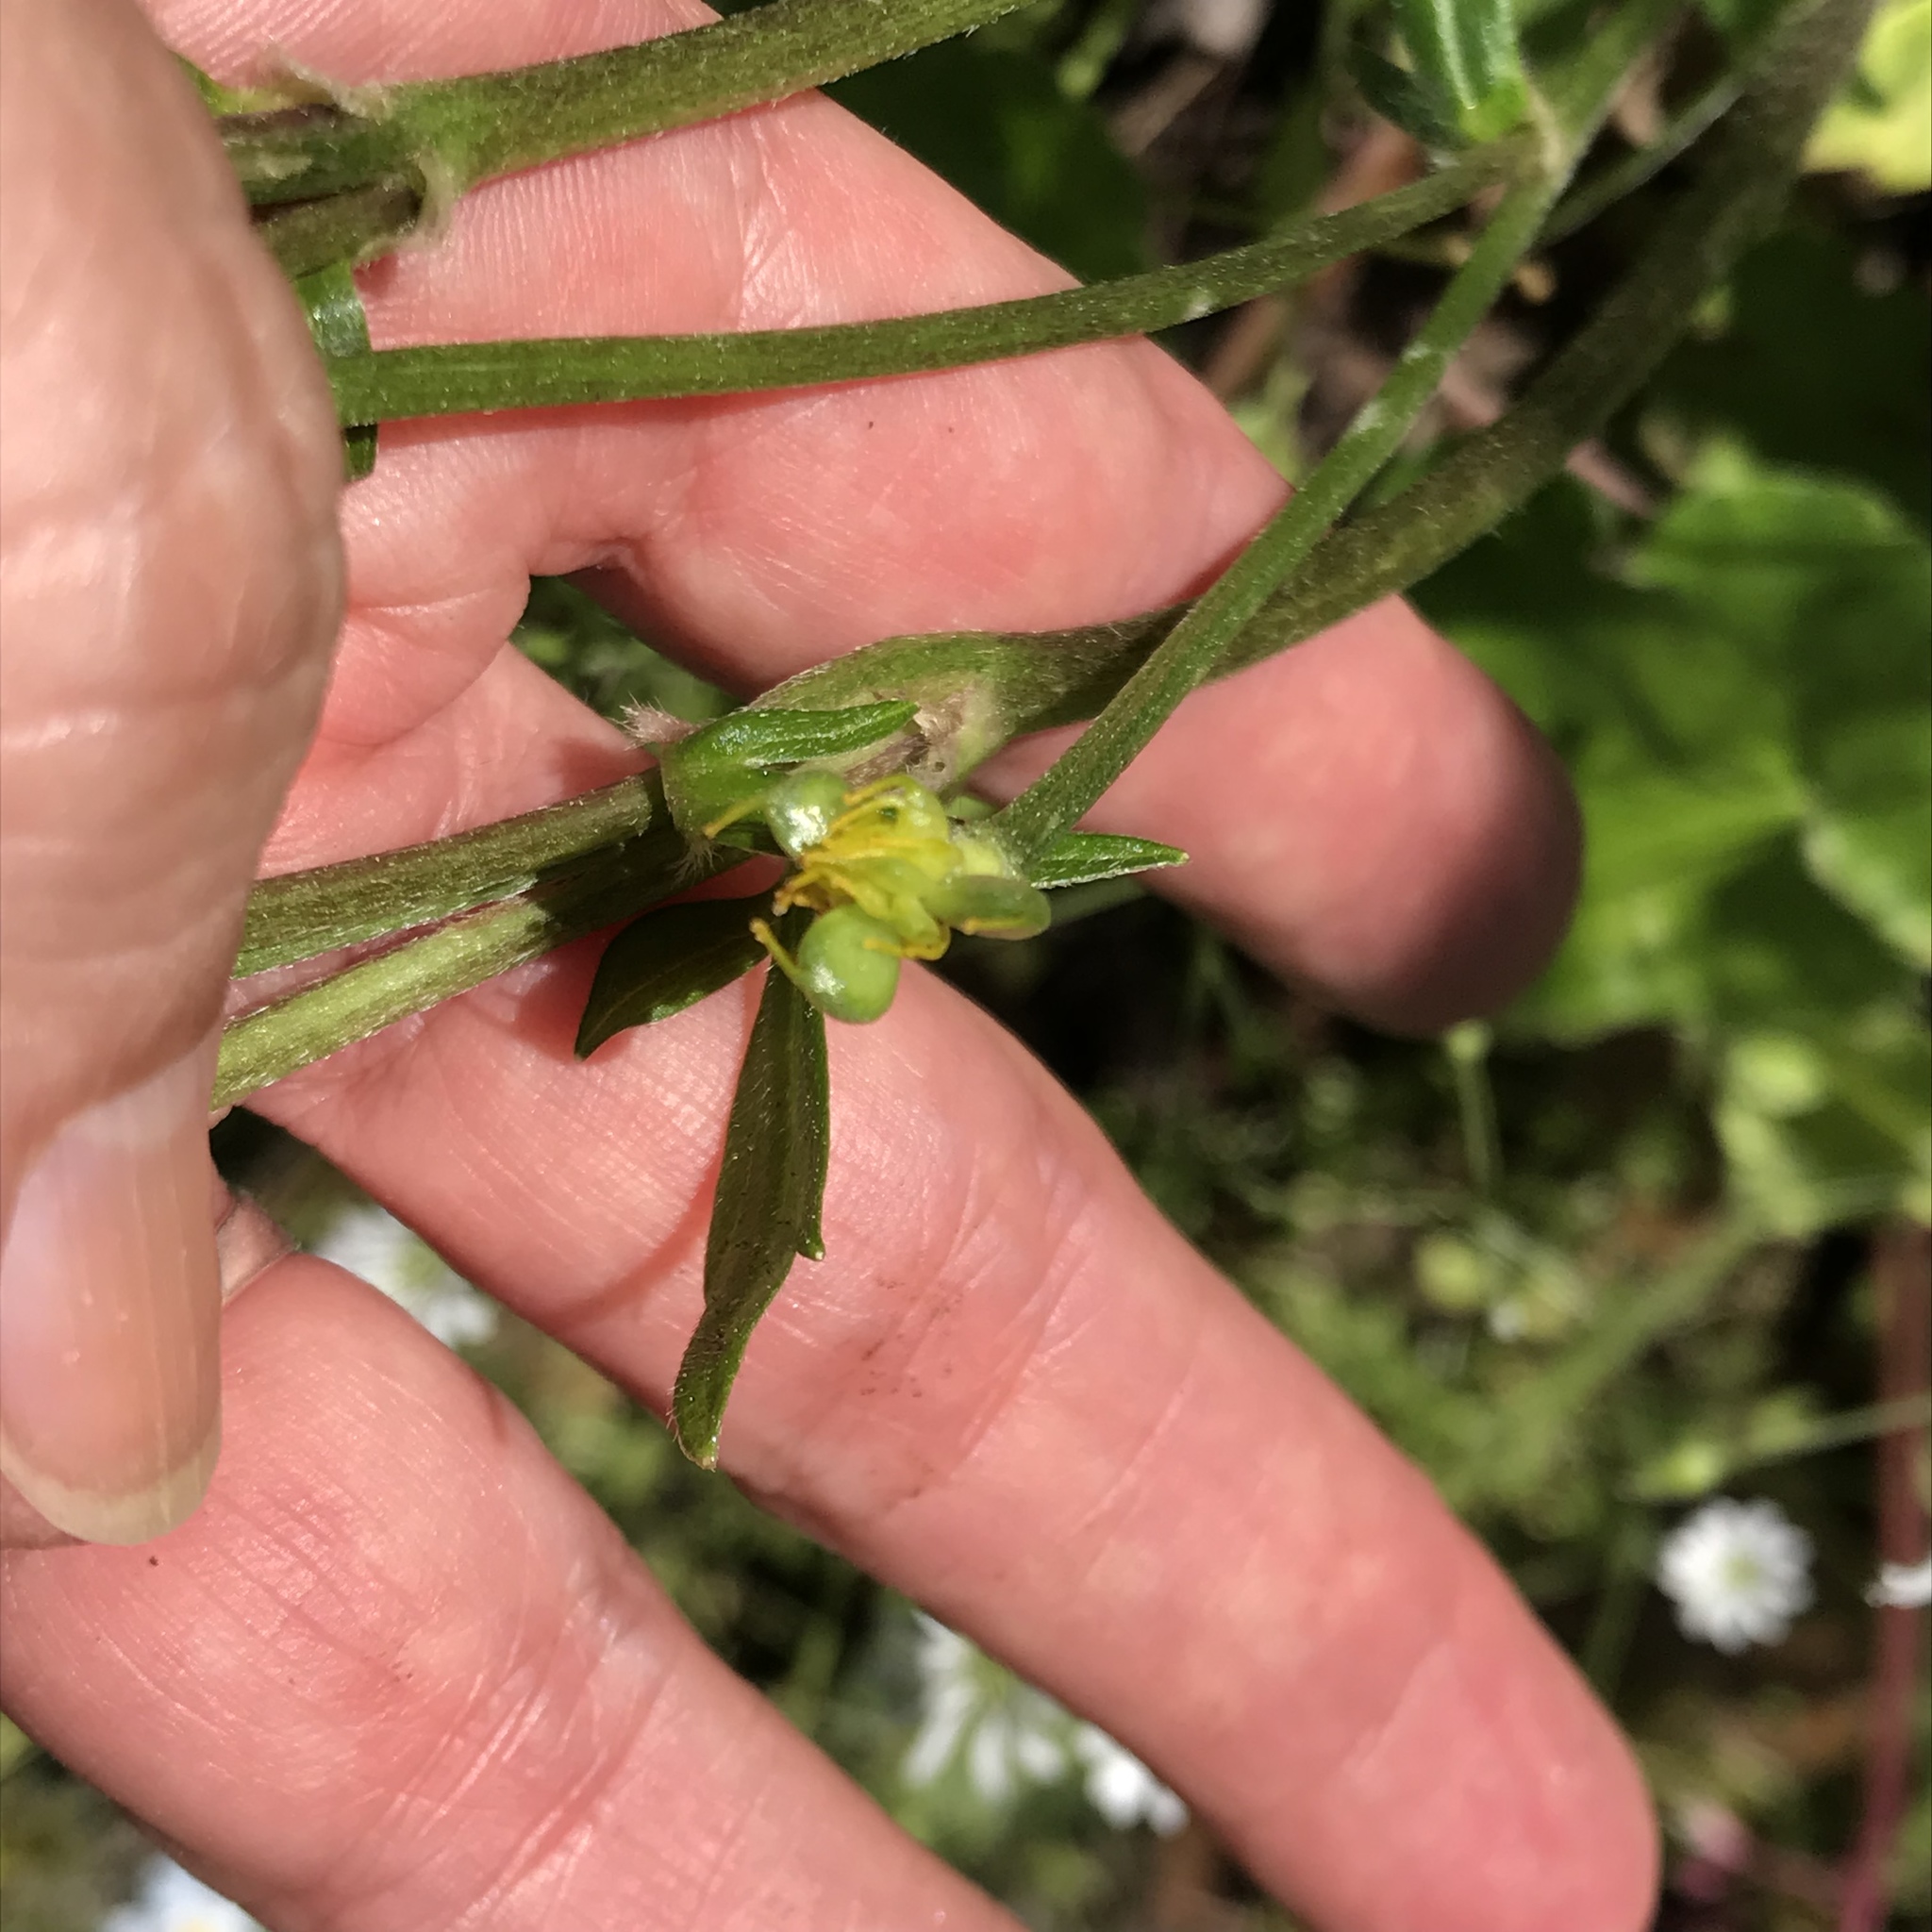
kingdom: Plantae
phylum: Tracheophyta
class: Magnoliopsida
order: Ranunculales
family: Ranunculaceae
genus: Ranunculus
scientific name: Ranunculus sierrae-orientalis
